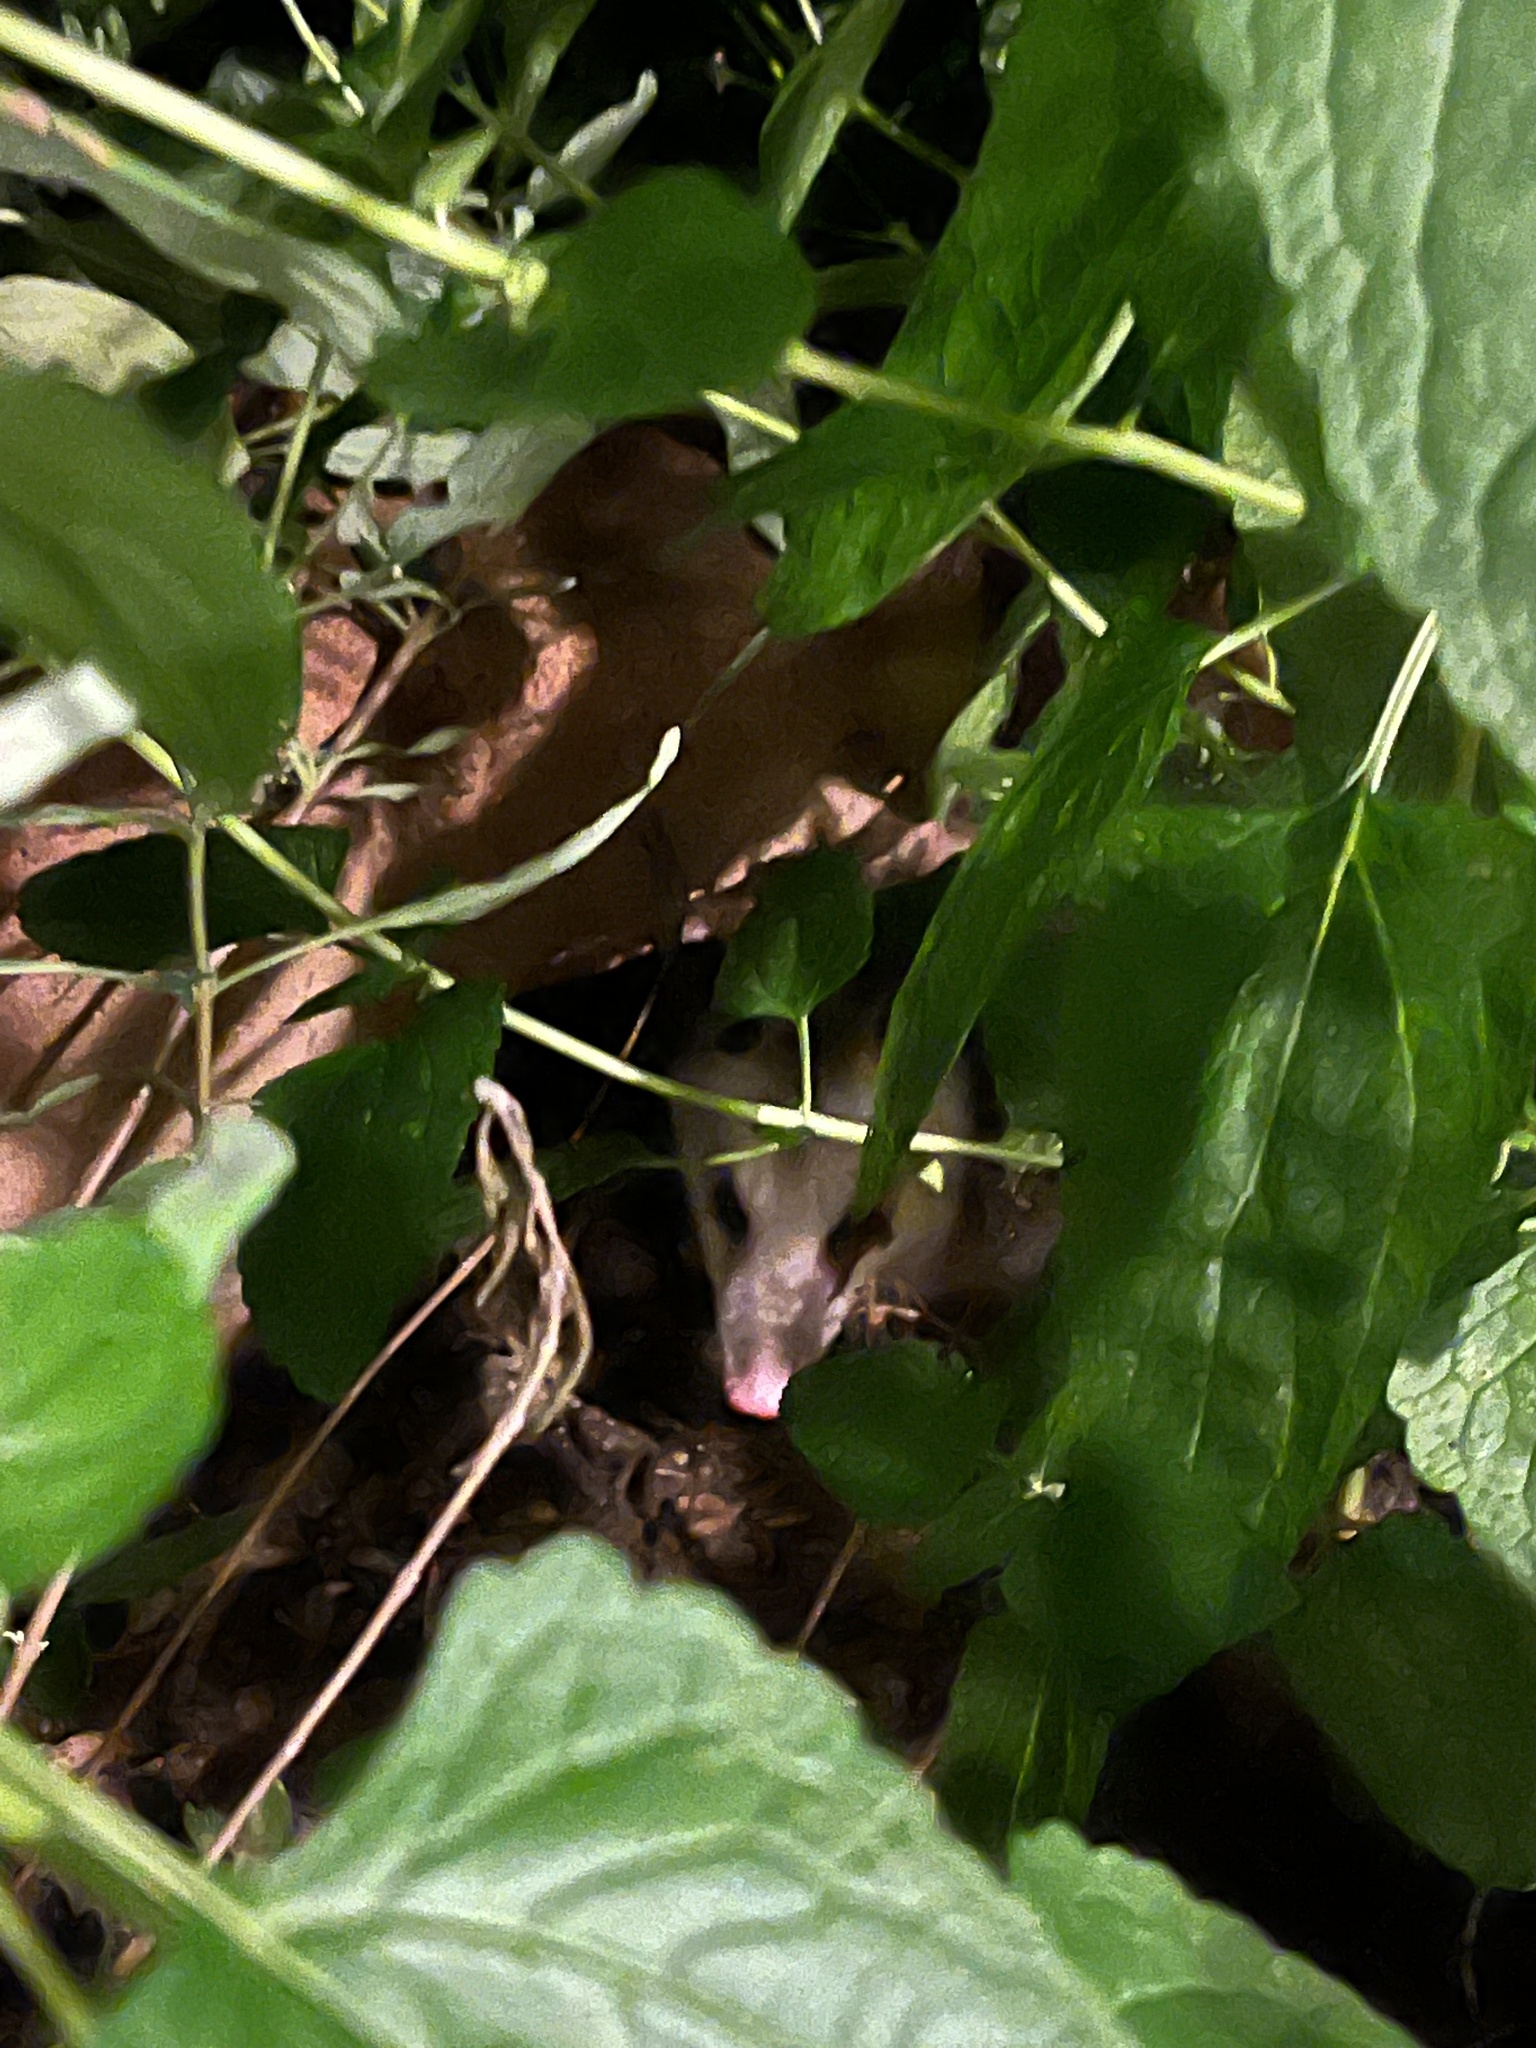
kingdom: Animalia
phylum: Chordata
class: Mammalia
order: Didelphimorphia
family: Didelphidae
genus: Didelphis
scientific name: Didelphis virginiana
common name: Virginia opossum
